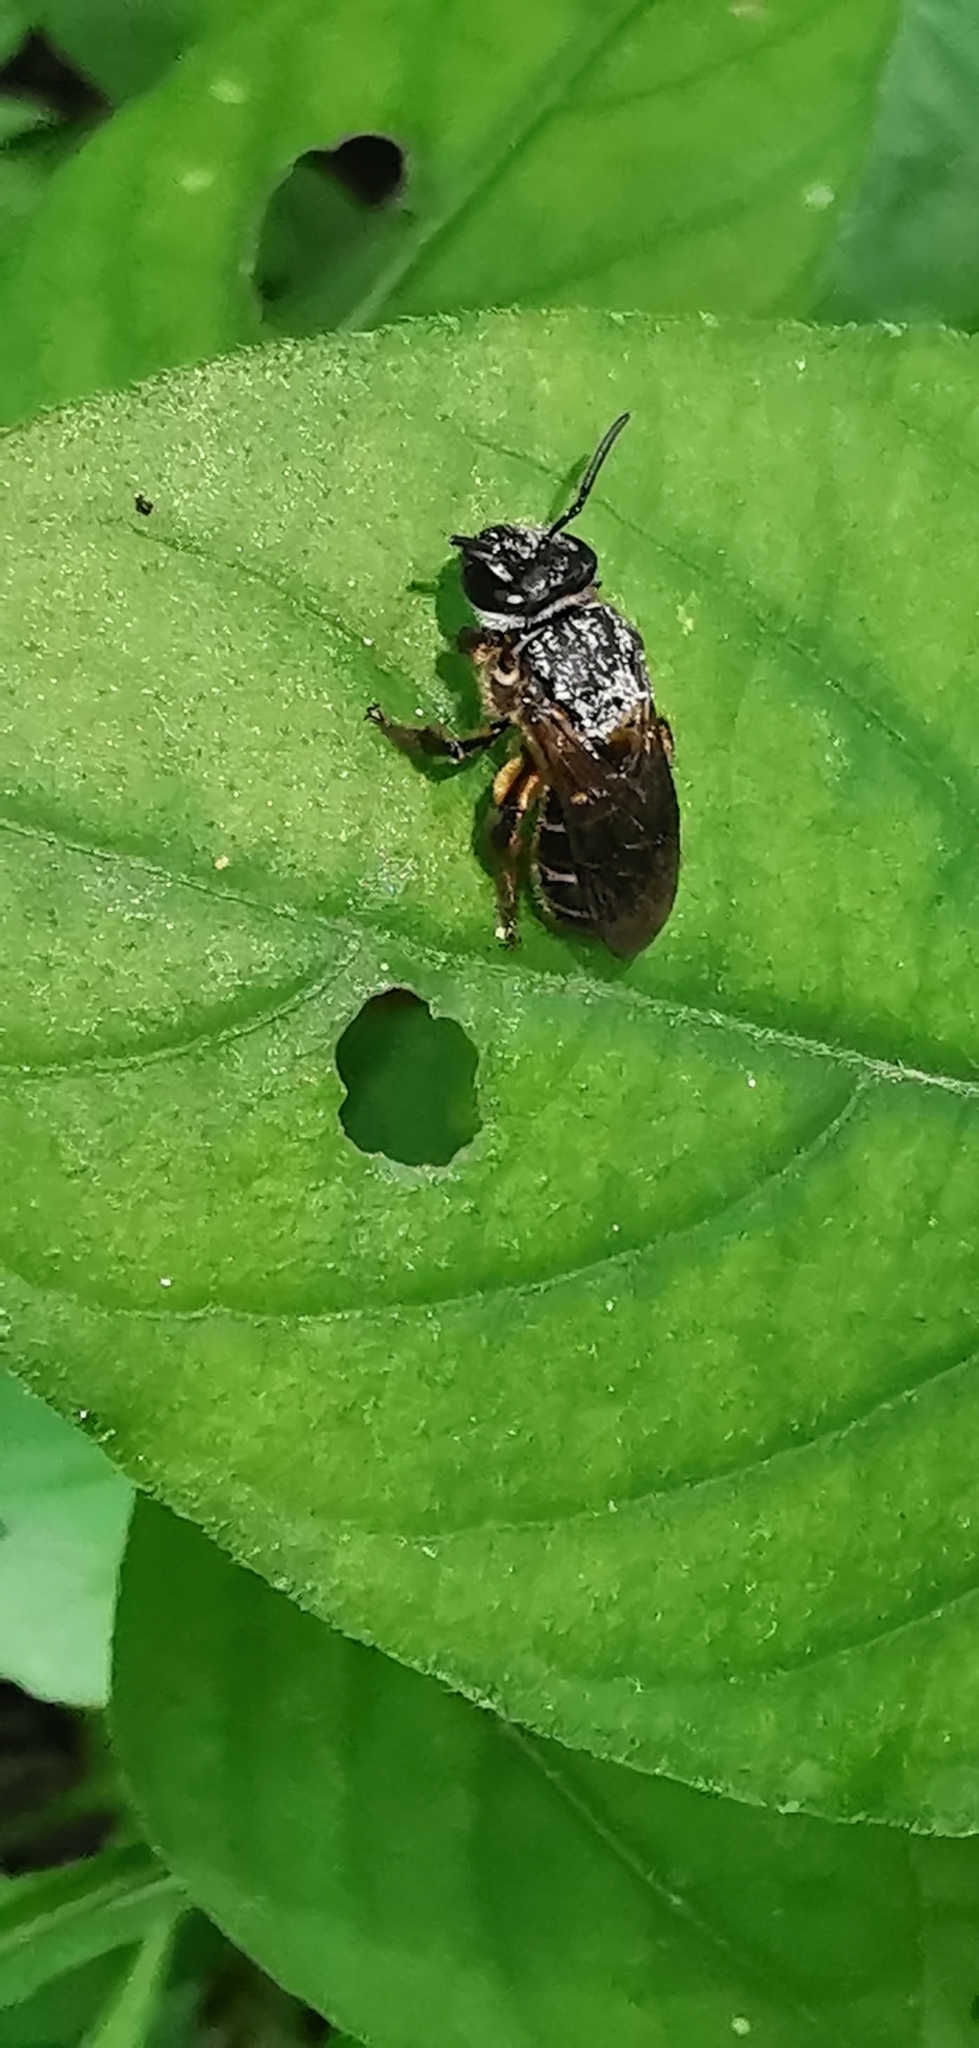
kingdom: Animalia
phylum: Arthropoda
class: Insecta
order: Hymenoptera
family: Halictidae
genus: Nomia
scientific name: Nomia lusoria
